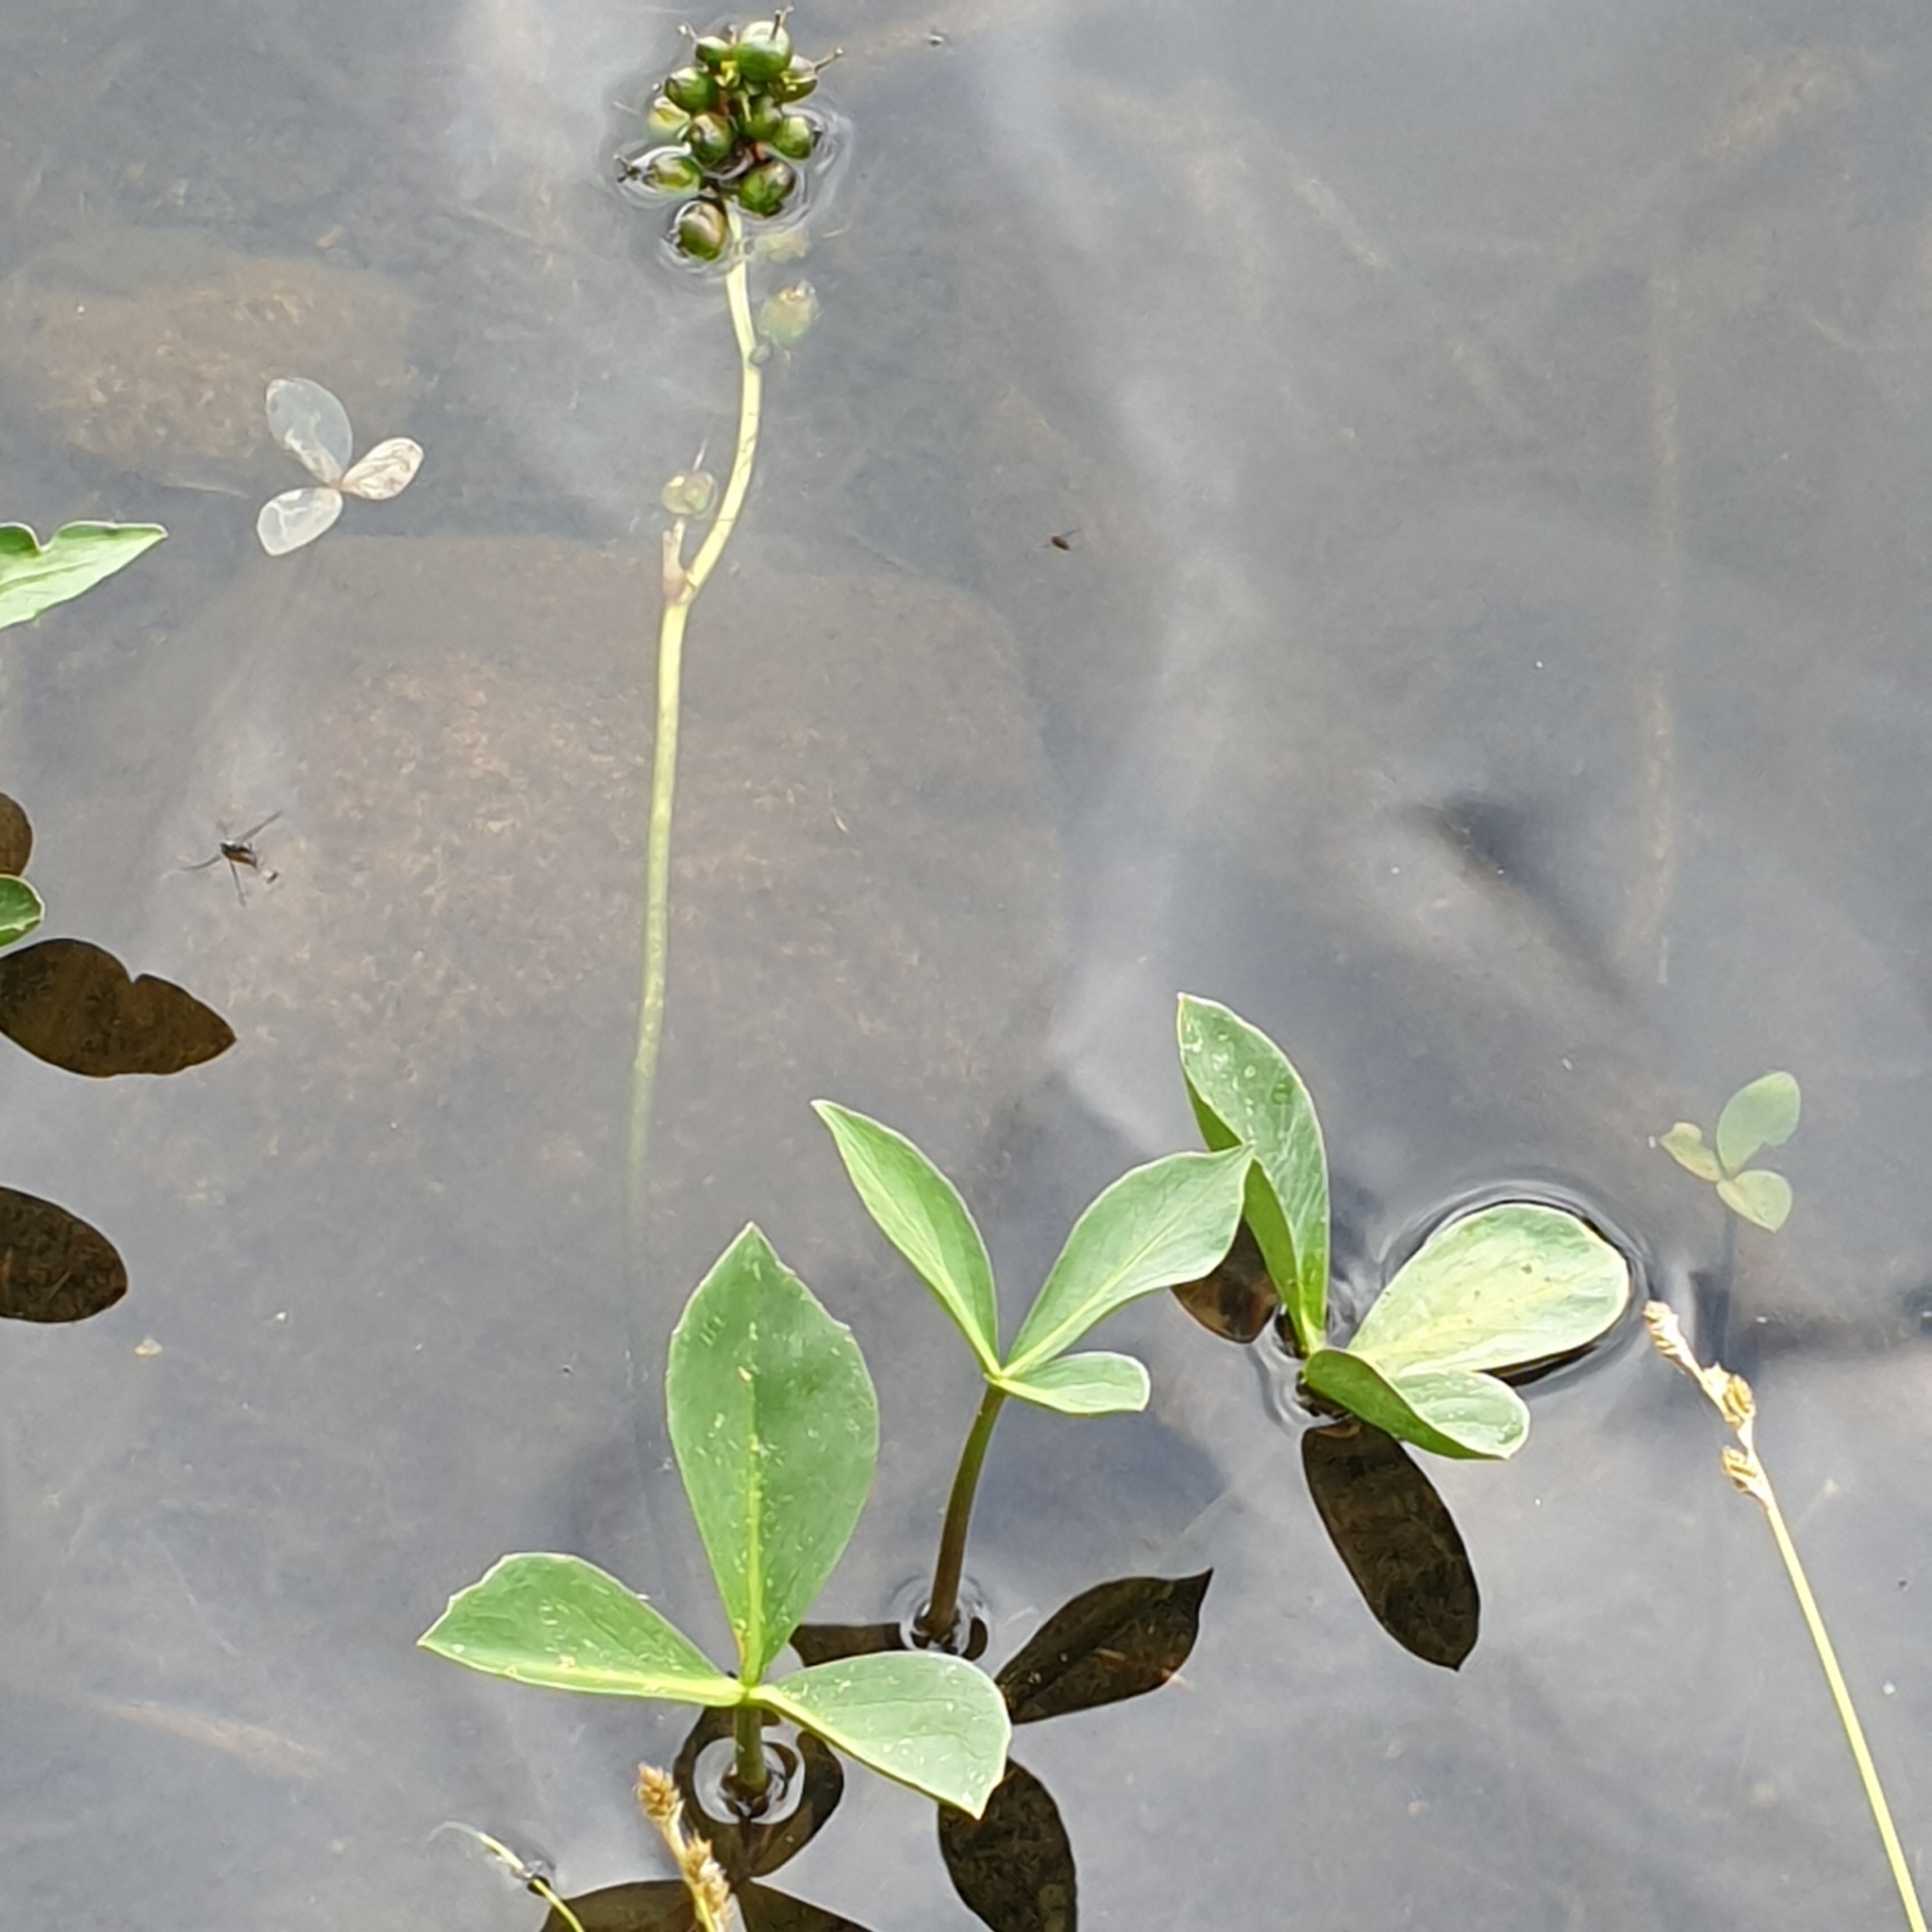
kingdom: Plantae
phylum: Tracheophyta
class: Magnoliopsida
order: Asterales
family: Menyanthaceae
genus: Menyanthes
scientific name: Menyanthes trifoliata
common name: Bogbean
